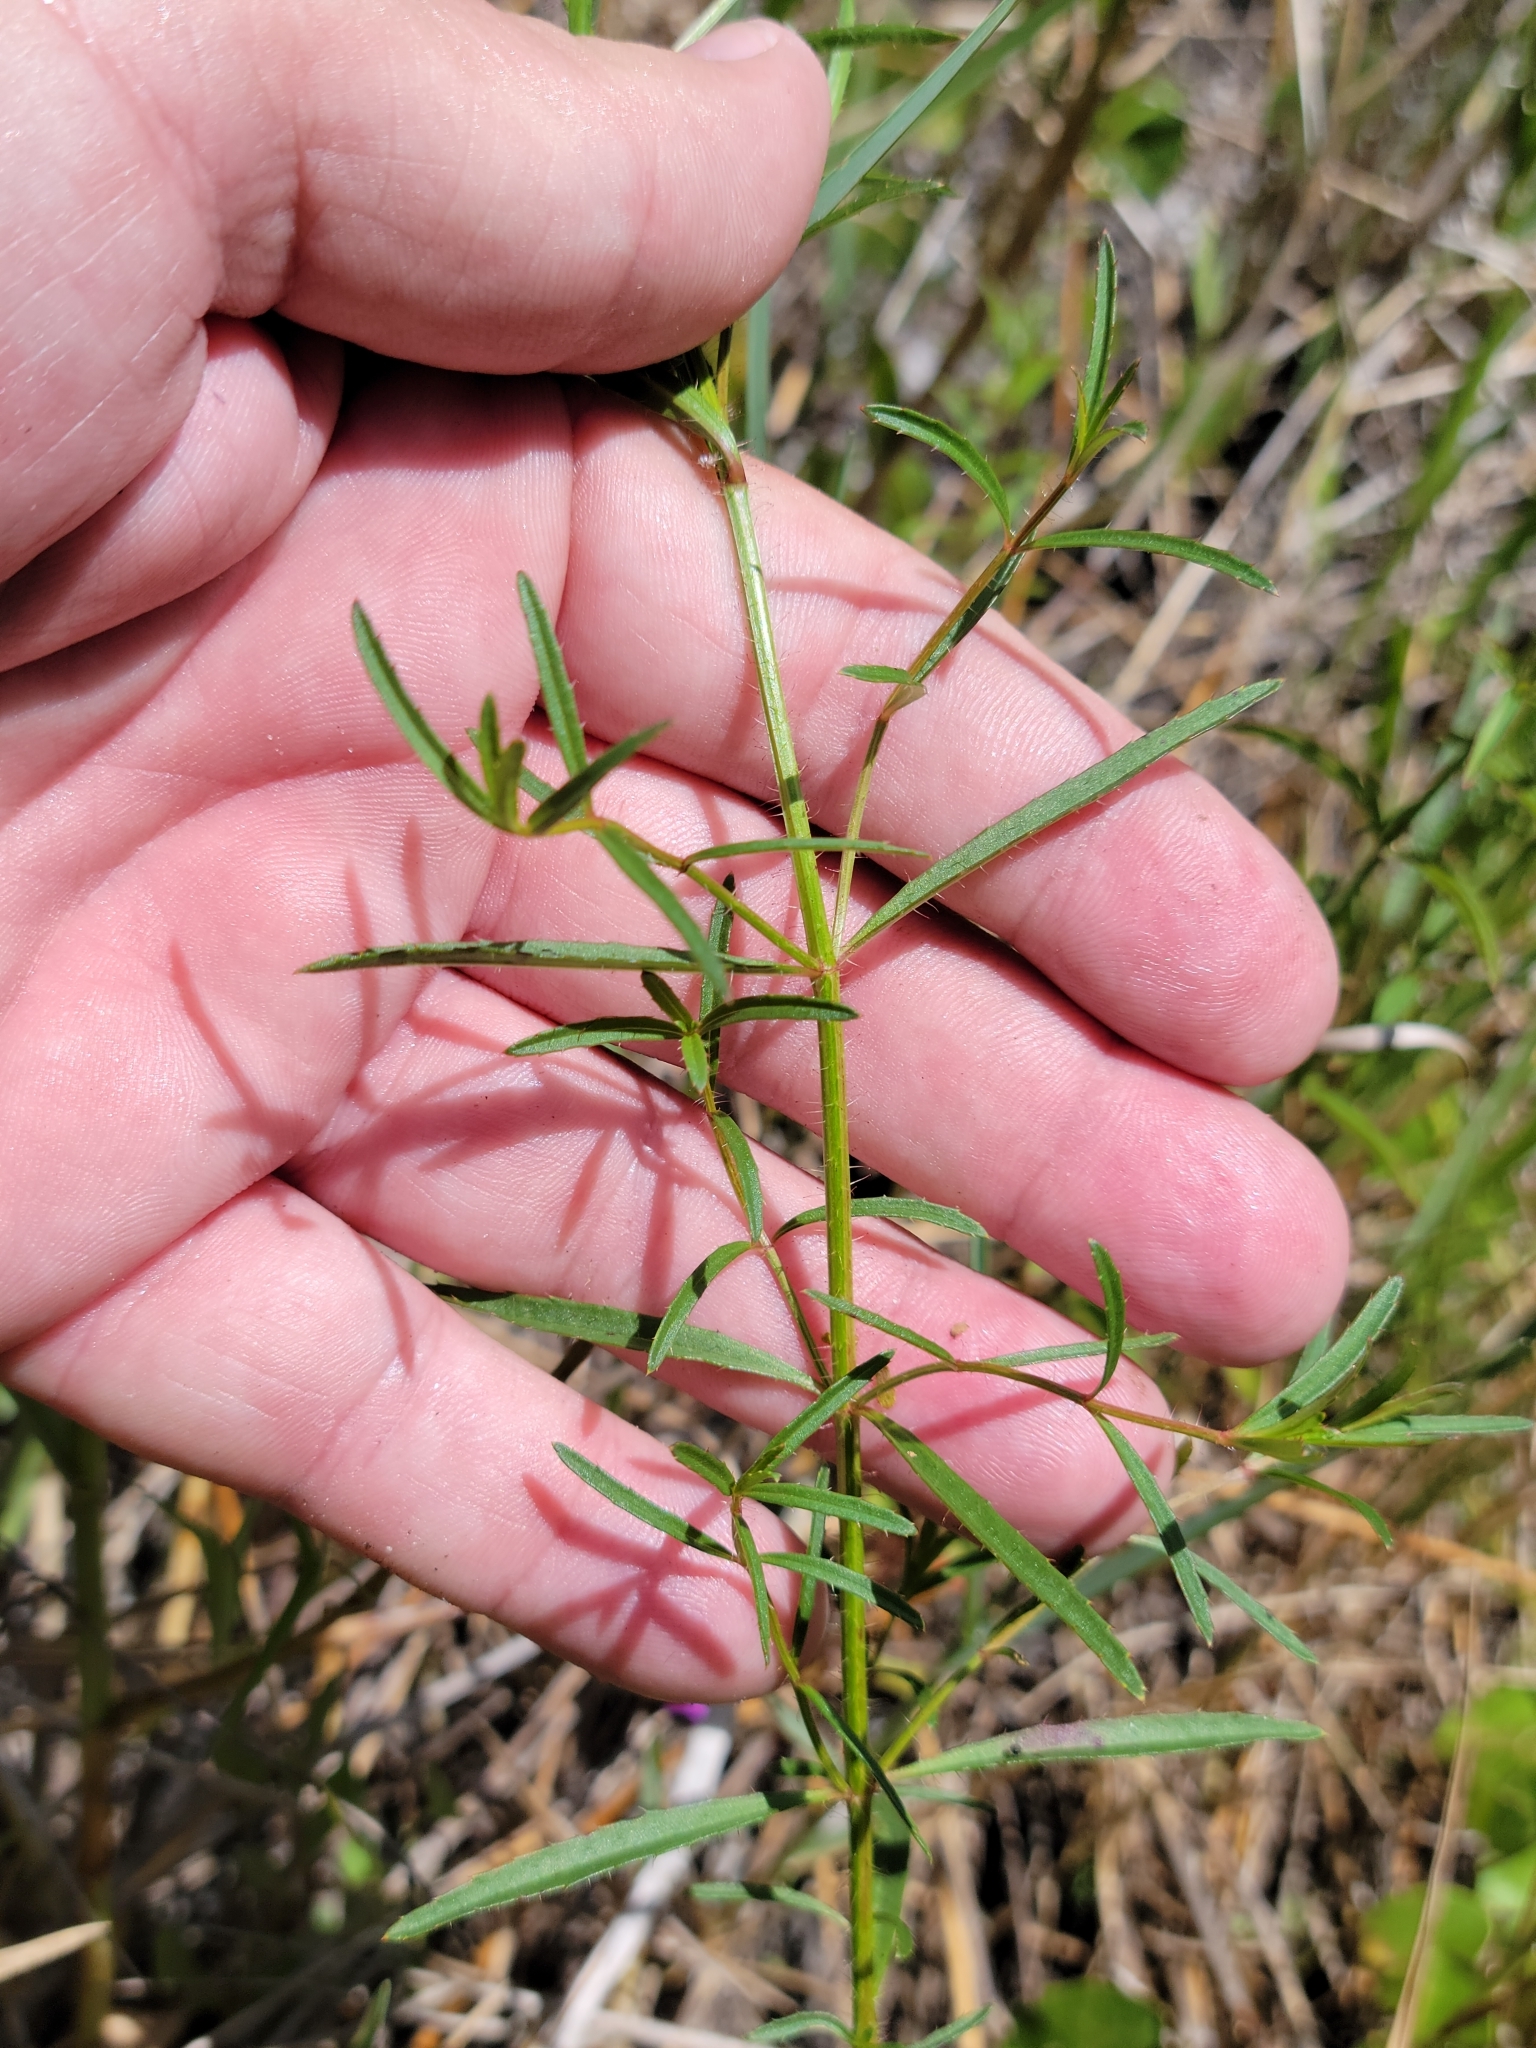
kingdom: Plantae
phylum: Tracheophyta
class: Magnoliopsida
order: Myrtales
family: Melastomataceae
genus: Rhexia
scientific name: Rhexia cubensis
